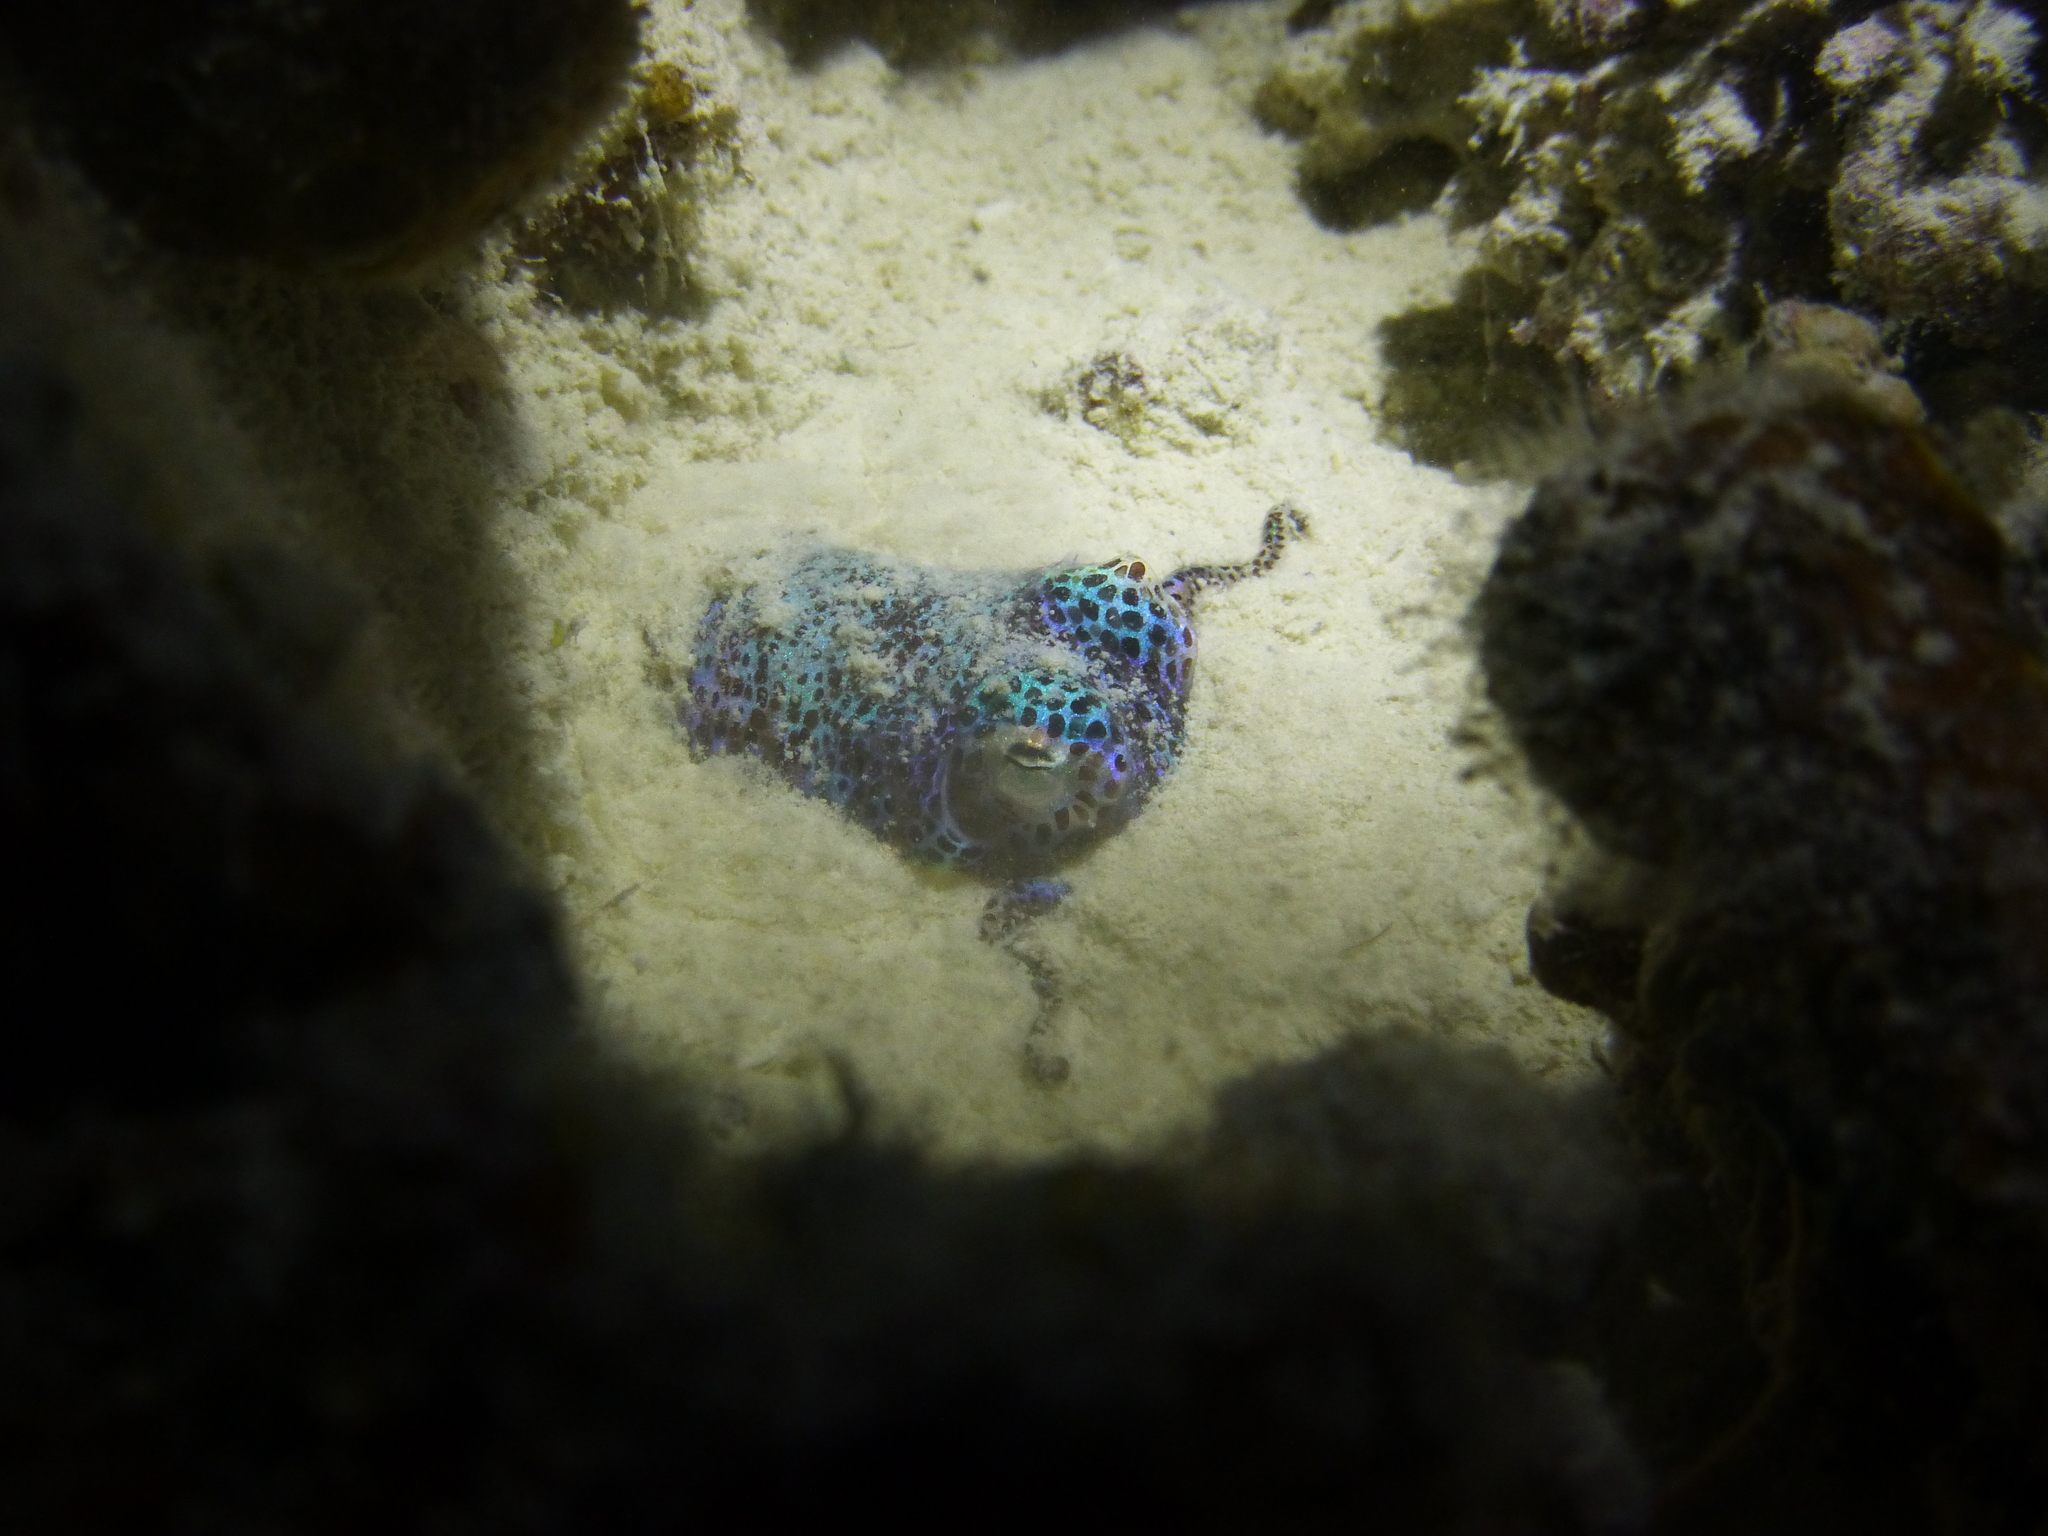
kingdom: Animalia
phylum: Mollusca
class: Cephalopoda
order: Sepiida
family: Sepiolidae
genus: Euprymna
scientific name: Euprymna berryi
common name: Humming-bird bobtail squid
